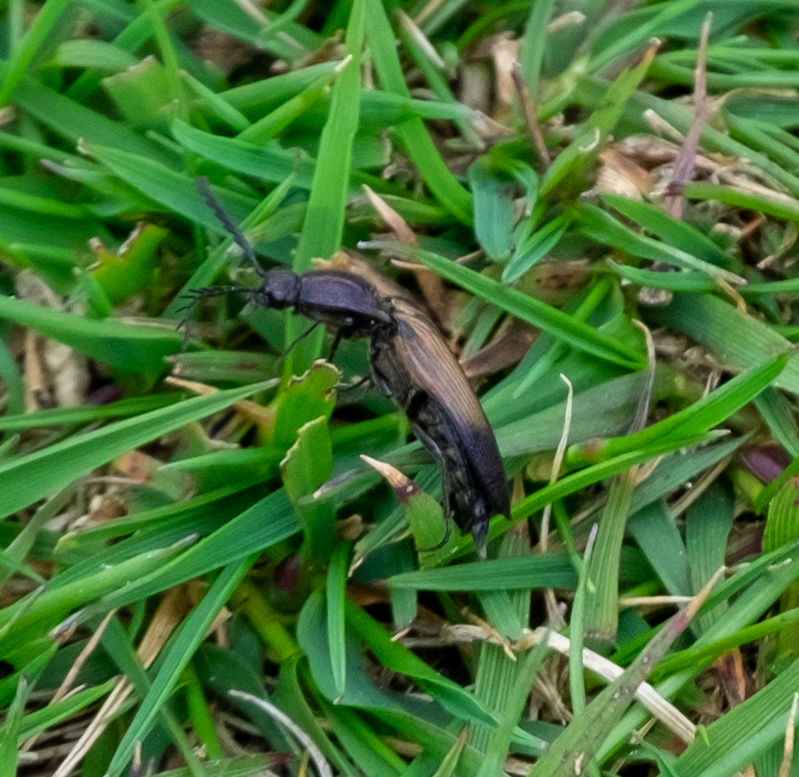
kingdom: Animalia
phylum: Arthropoda
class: Insecta
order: Coleoptera
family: Elateridae
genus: Ctenicera
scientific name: Ctenicera cuprea
